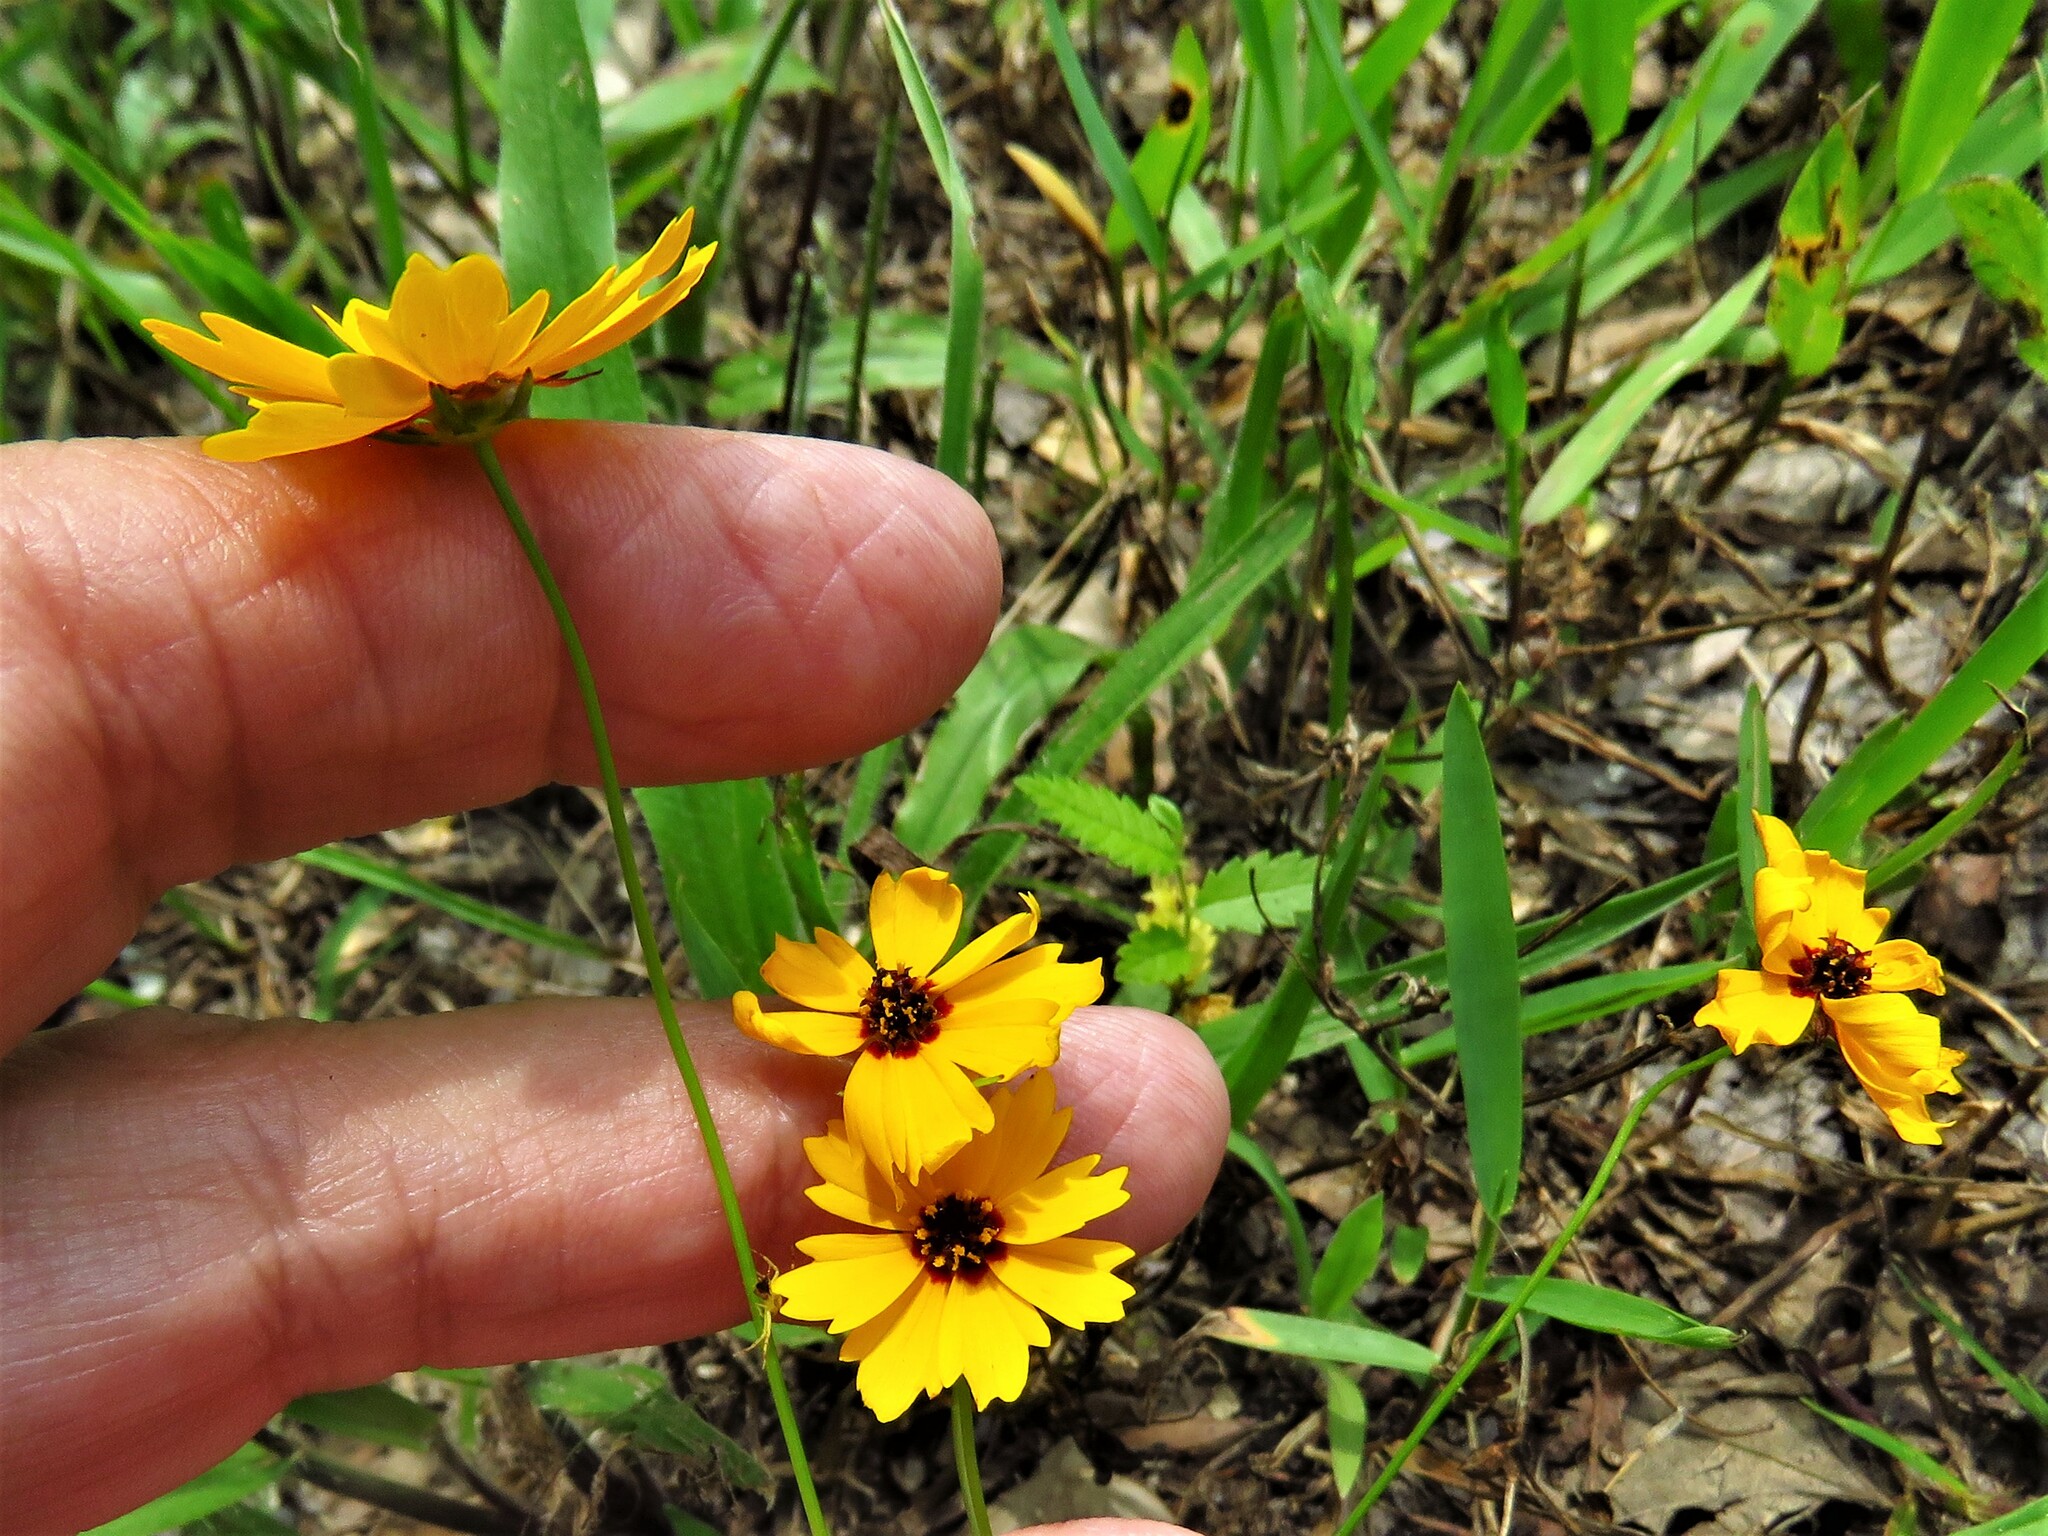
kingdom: Plantae
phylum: Tracheophyta
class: Magnoliopsida
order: Asterales
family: Asteraceae
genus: Coreopsis
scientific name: Coreopsis basalis
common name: Golden-mane coreopsis
